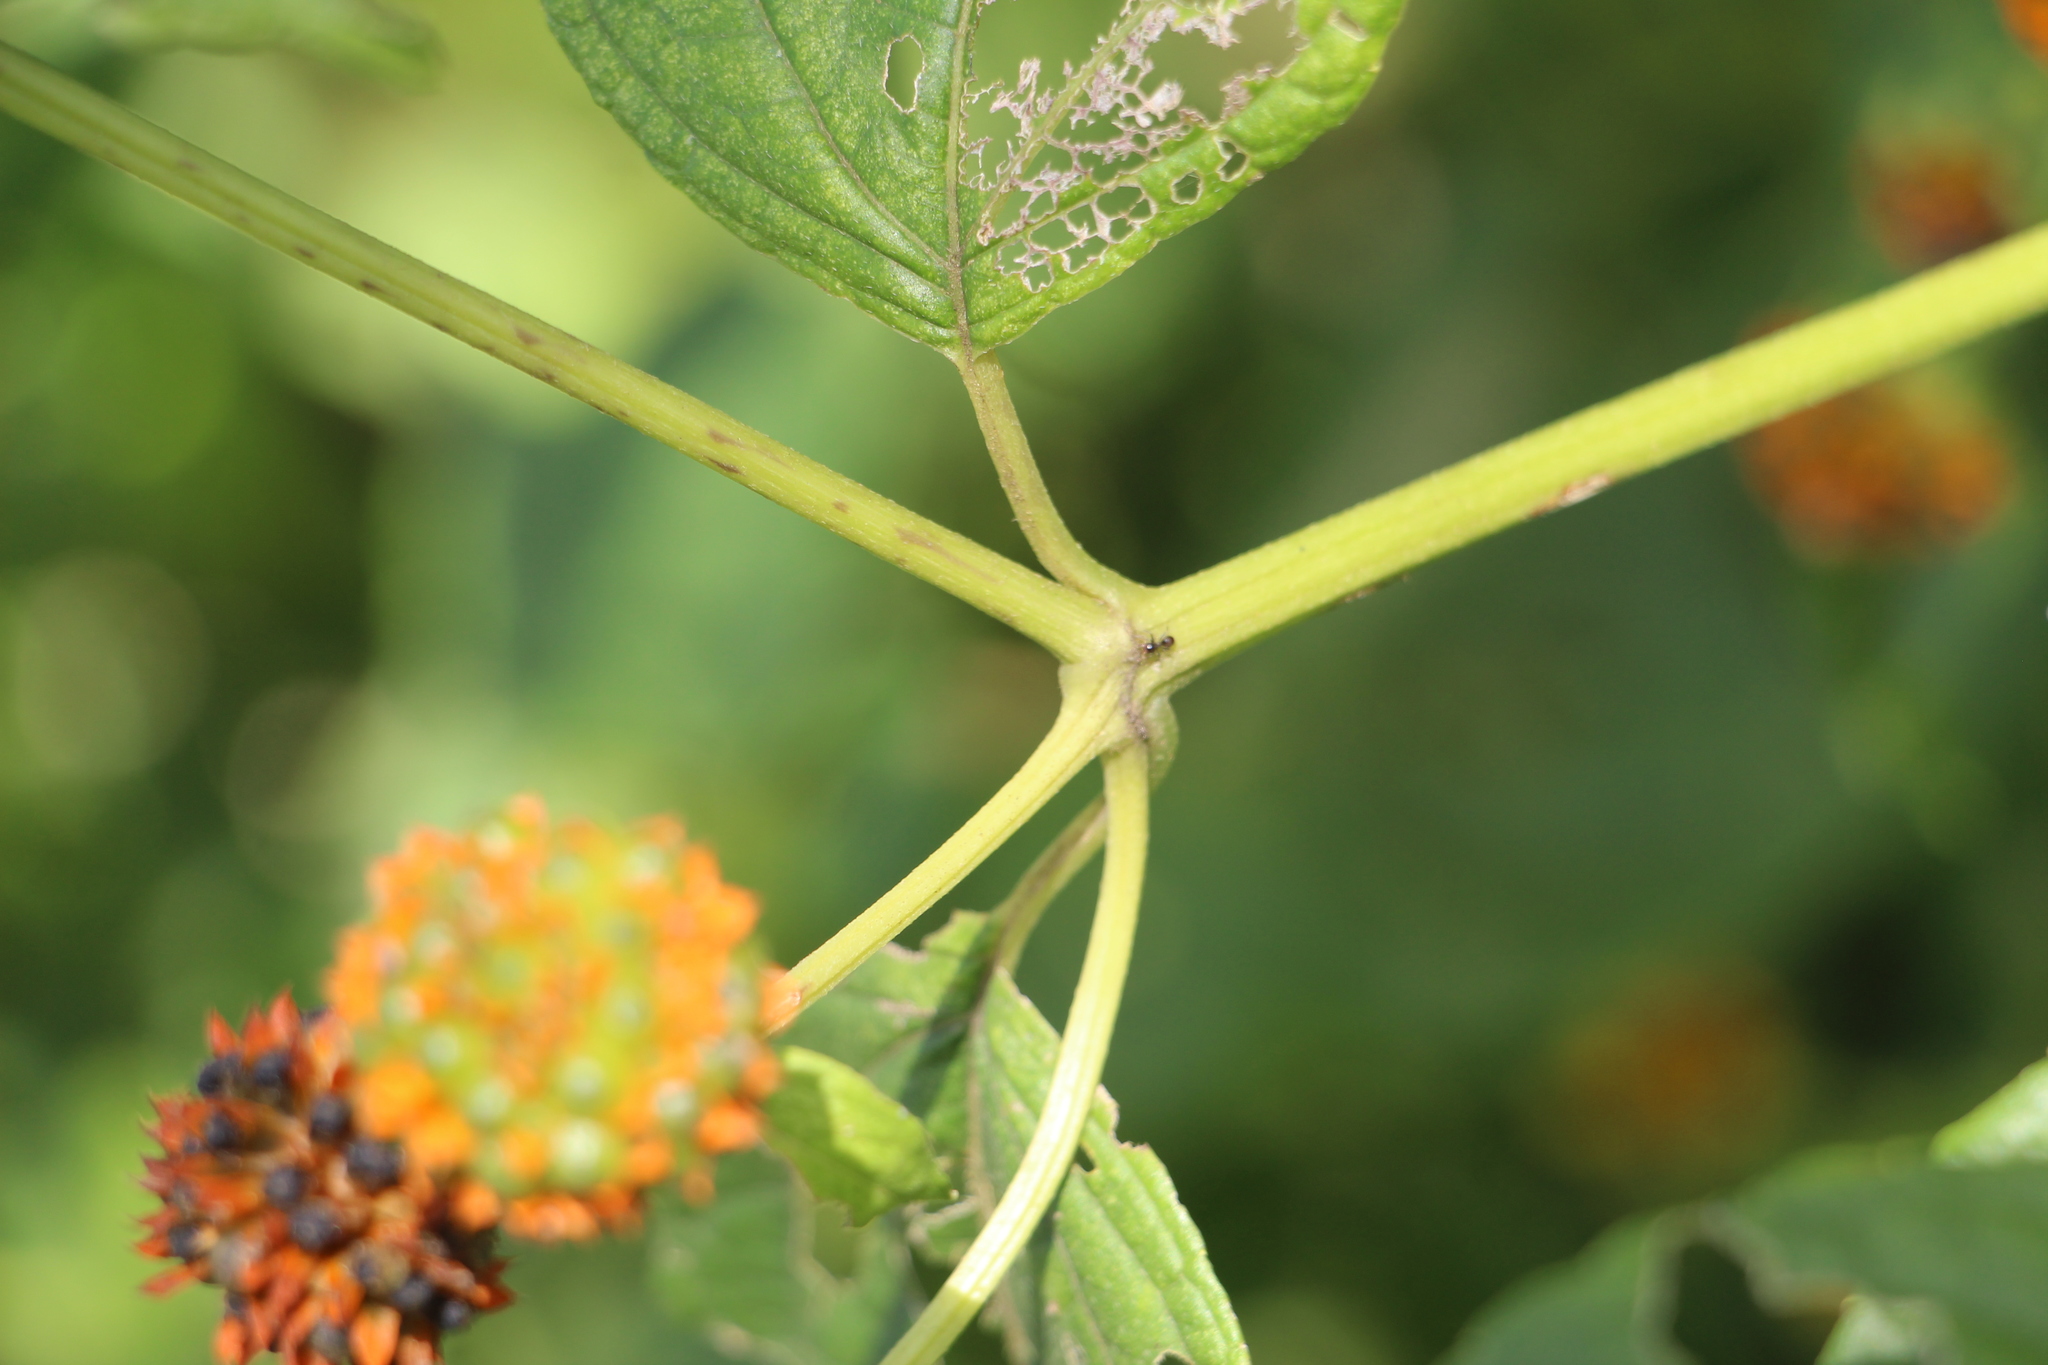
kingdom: Plantae
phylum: Tracheophyta
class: Magnoliopsida
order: Asterales
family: Asteraceae
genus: Tilesia
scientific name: Tilesia baccata
